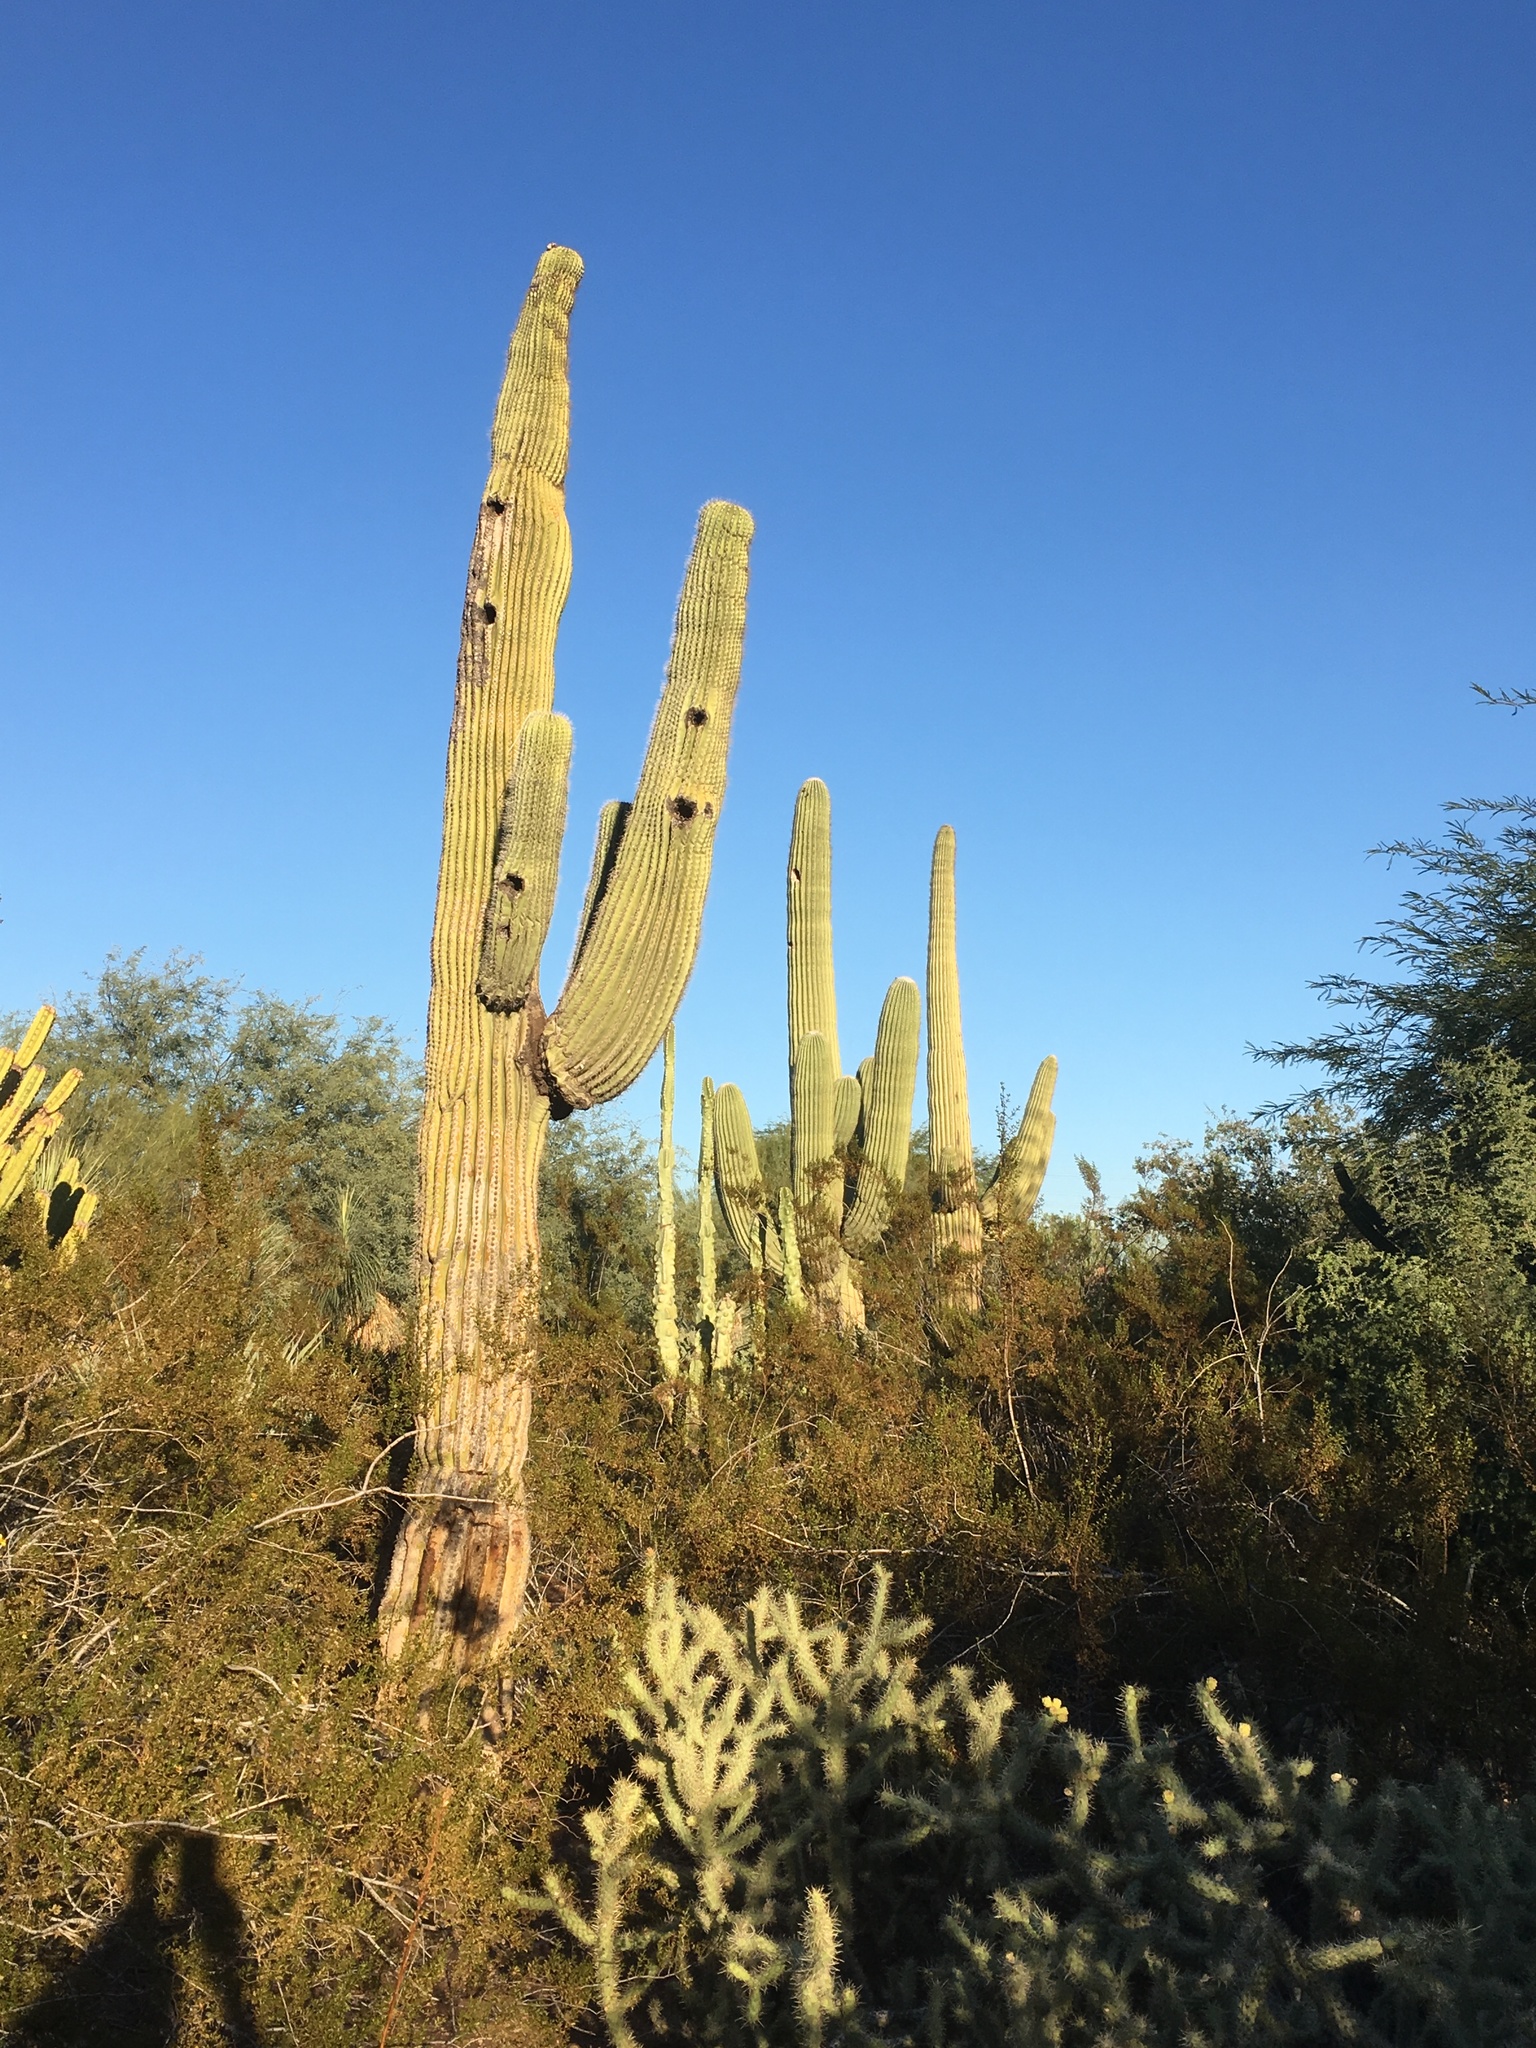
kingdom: Plantae
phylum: Tracheophyta
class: Magnoliopsida
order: Caryophyllales
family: Cactaceae
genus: Carnegiea
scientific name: Carnegiea gigantea
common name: Saguaro
